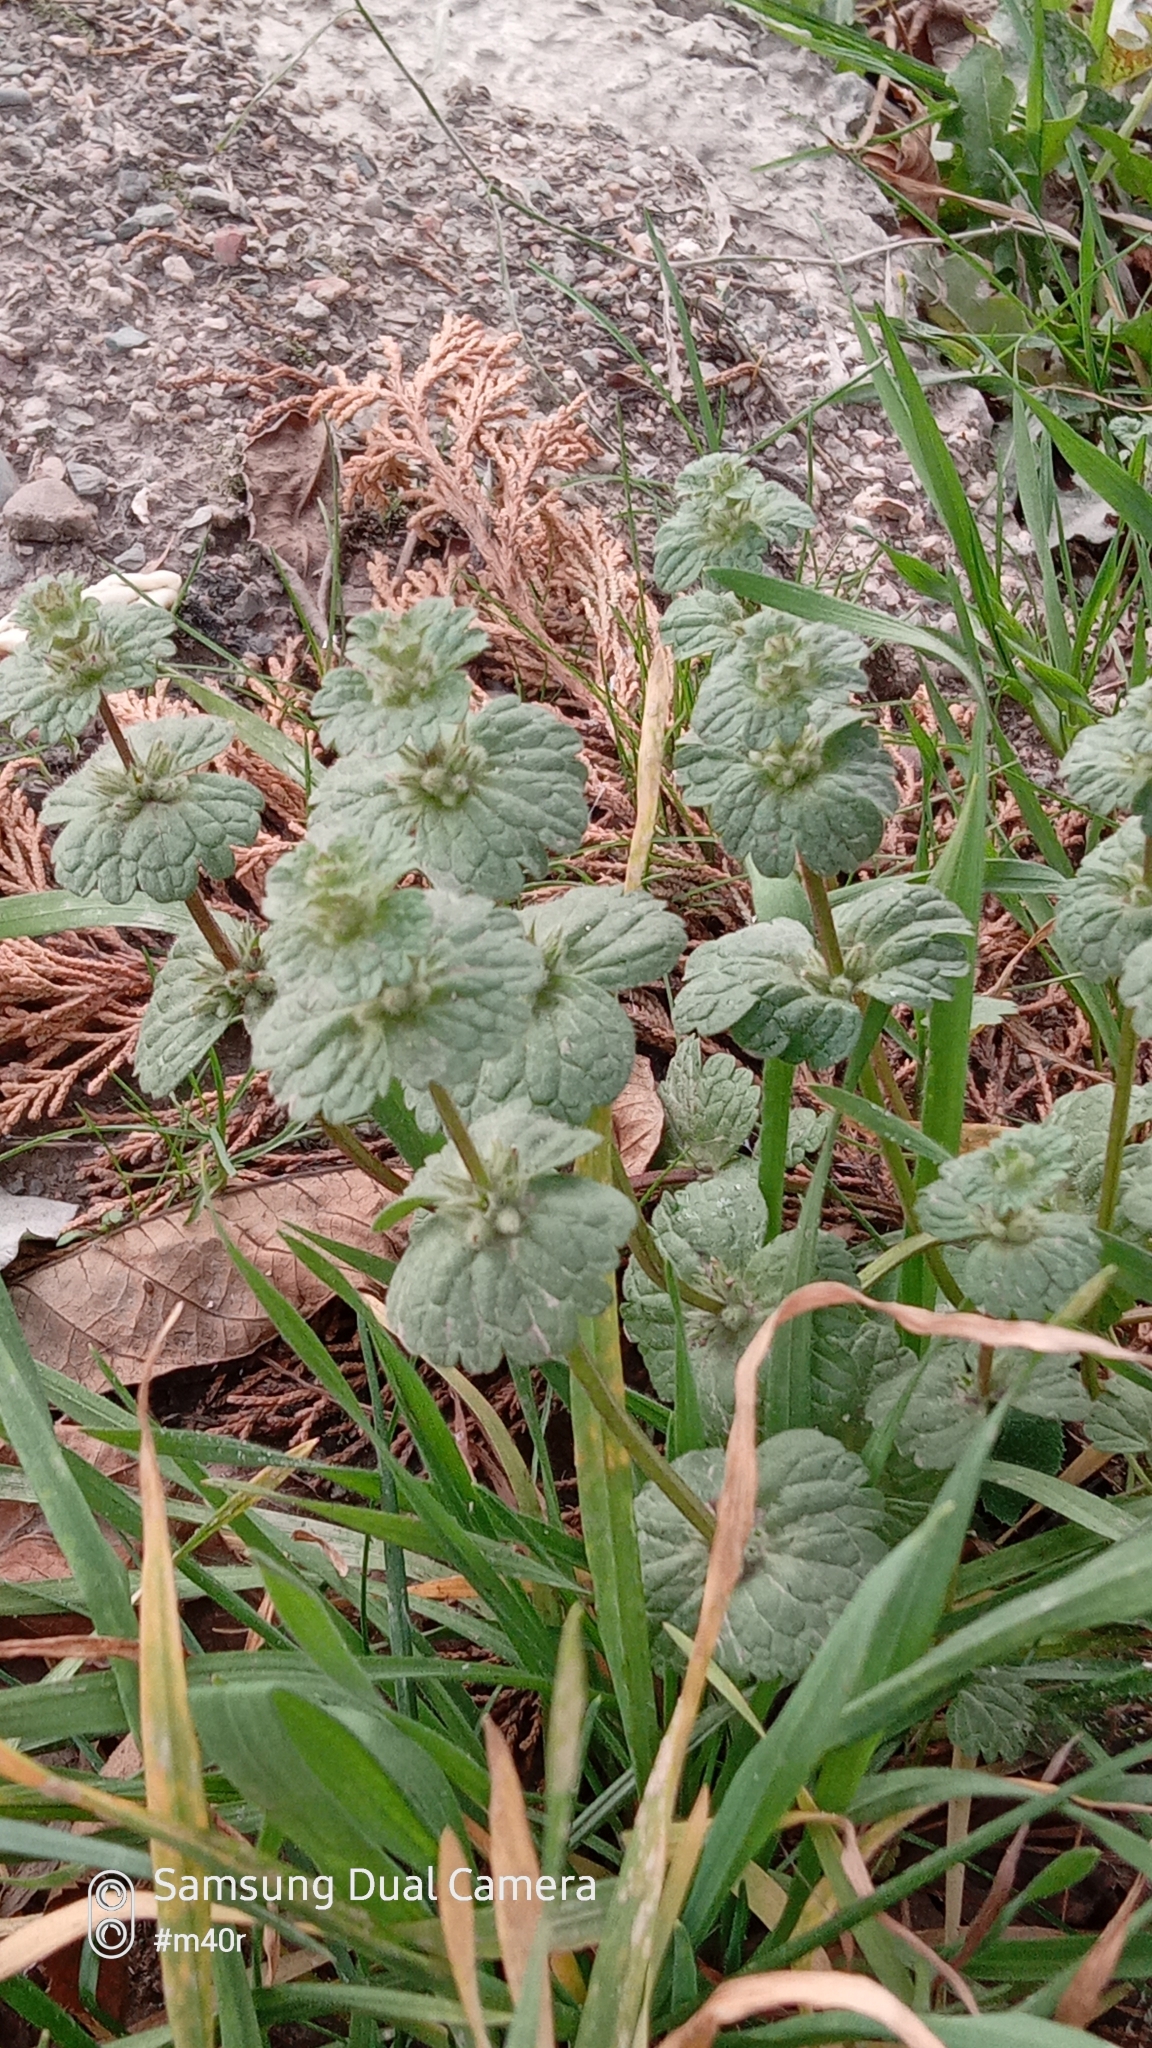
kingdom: Plantae
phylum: Tracheophyta
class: Magnoliopsida
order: Lamiales
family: Lamiaceae
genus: Lamium
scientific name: Lamium amplexicaule
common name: Henbit dead-nettle
